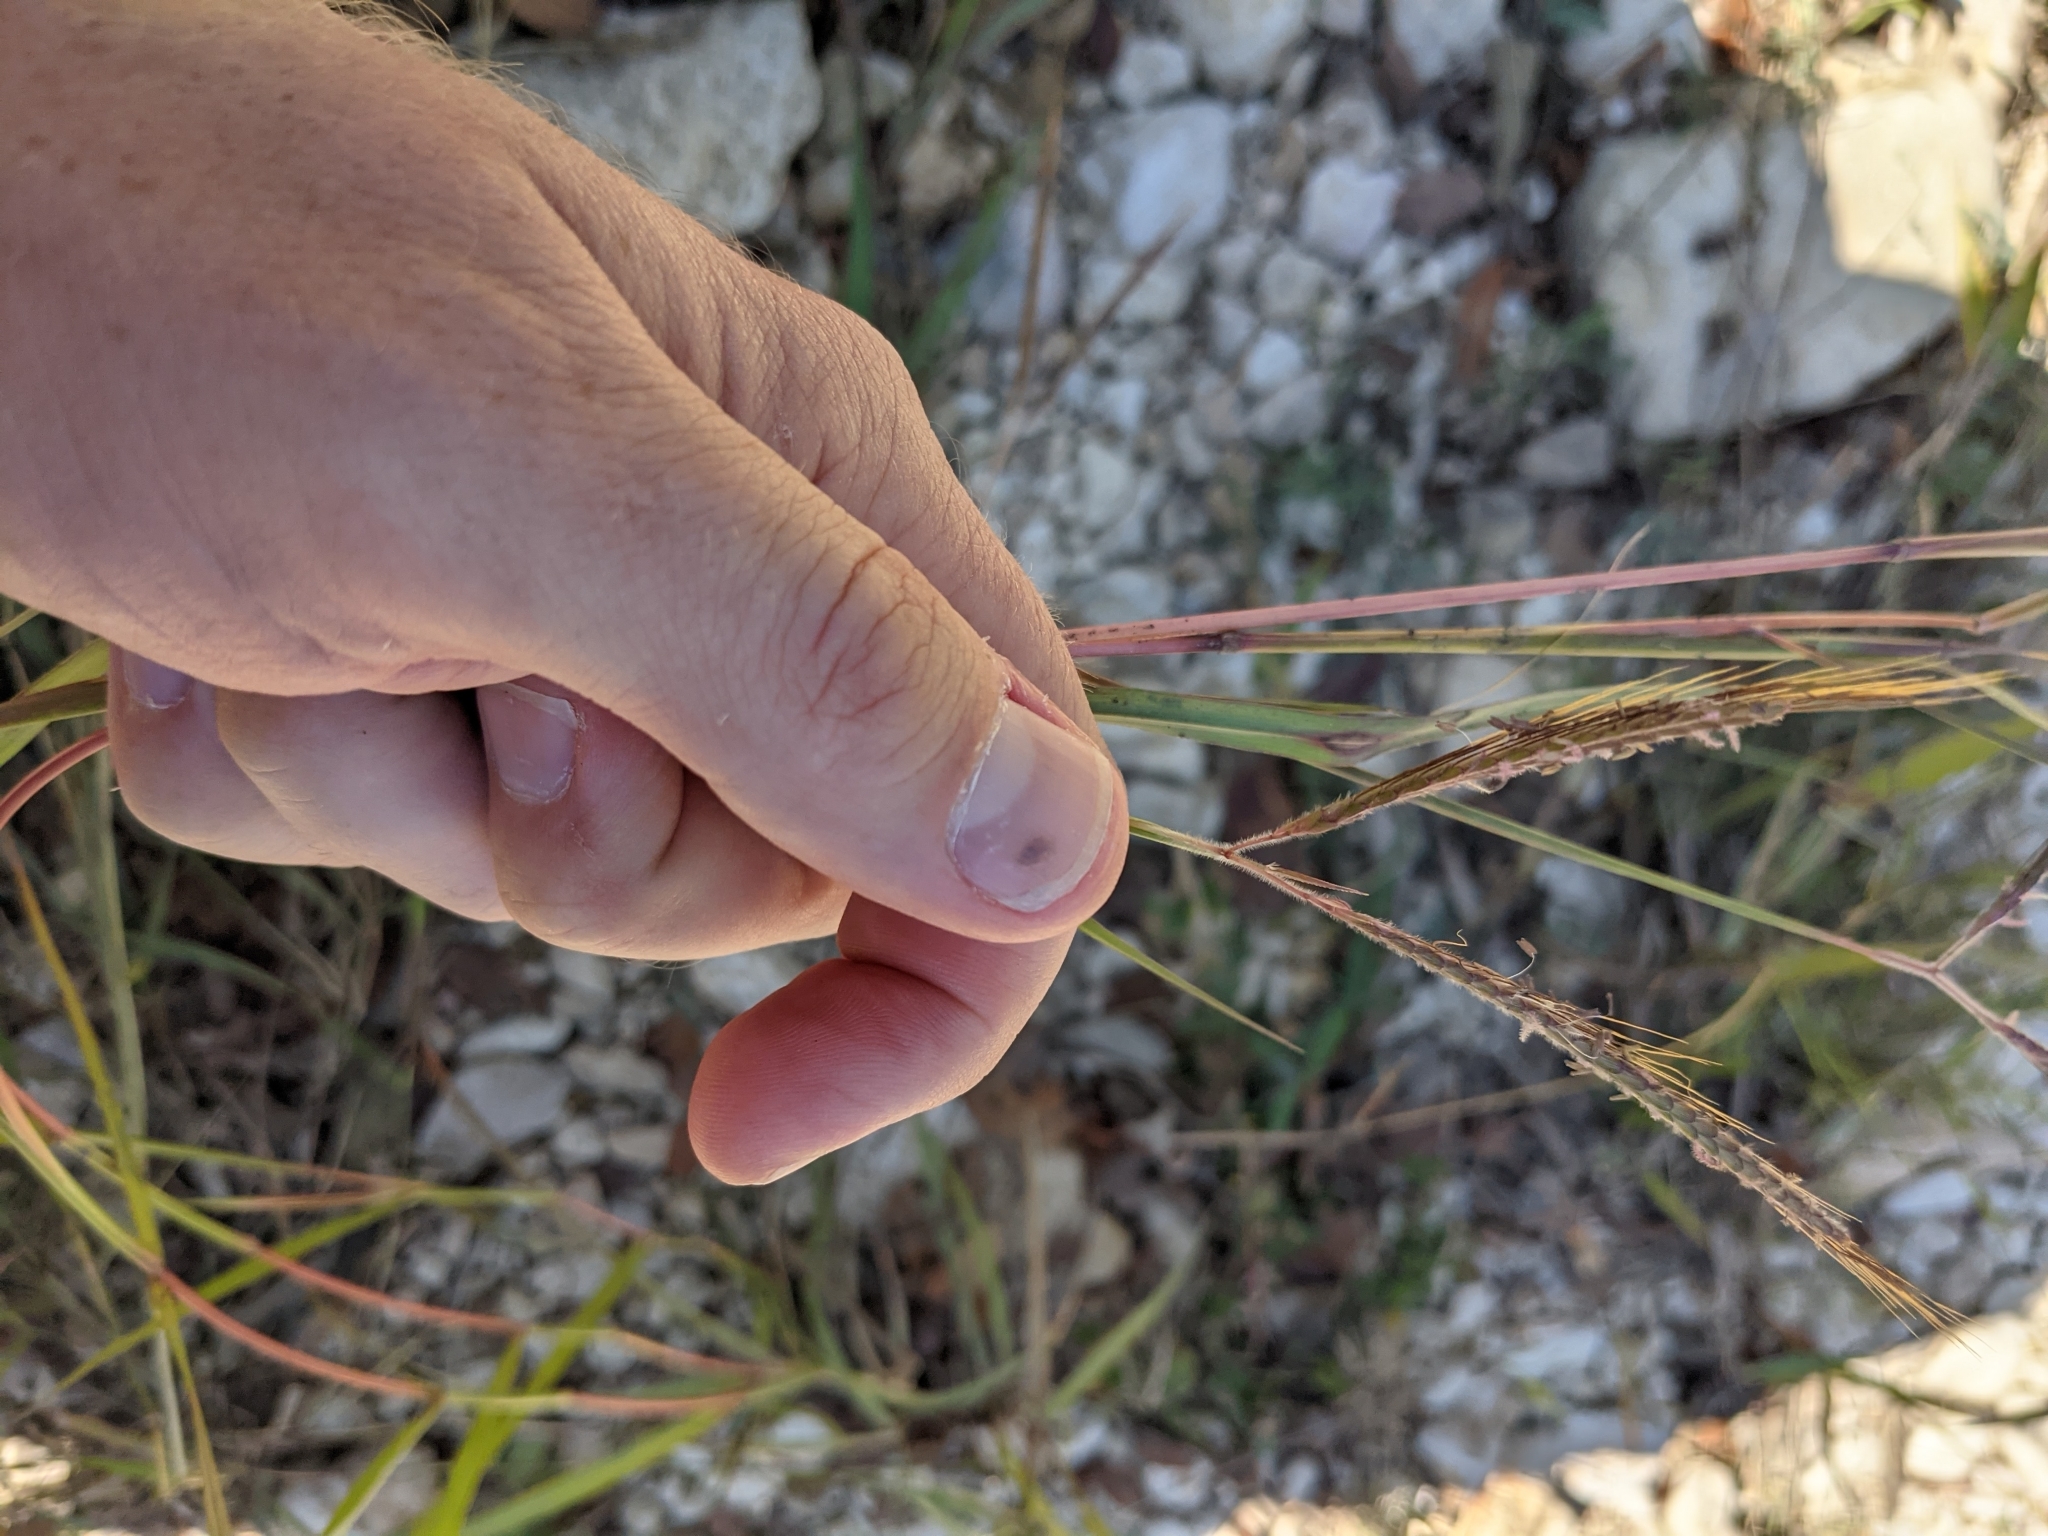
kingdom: Plantae
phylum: Tracheophyta
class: Liliopsida
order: Poales
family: Poaceae
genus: Dichanthium
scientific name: Dichanthium aristatum
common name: Angleton bluestem
